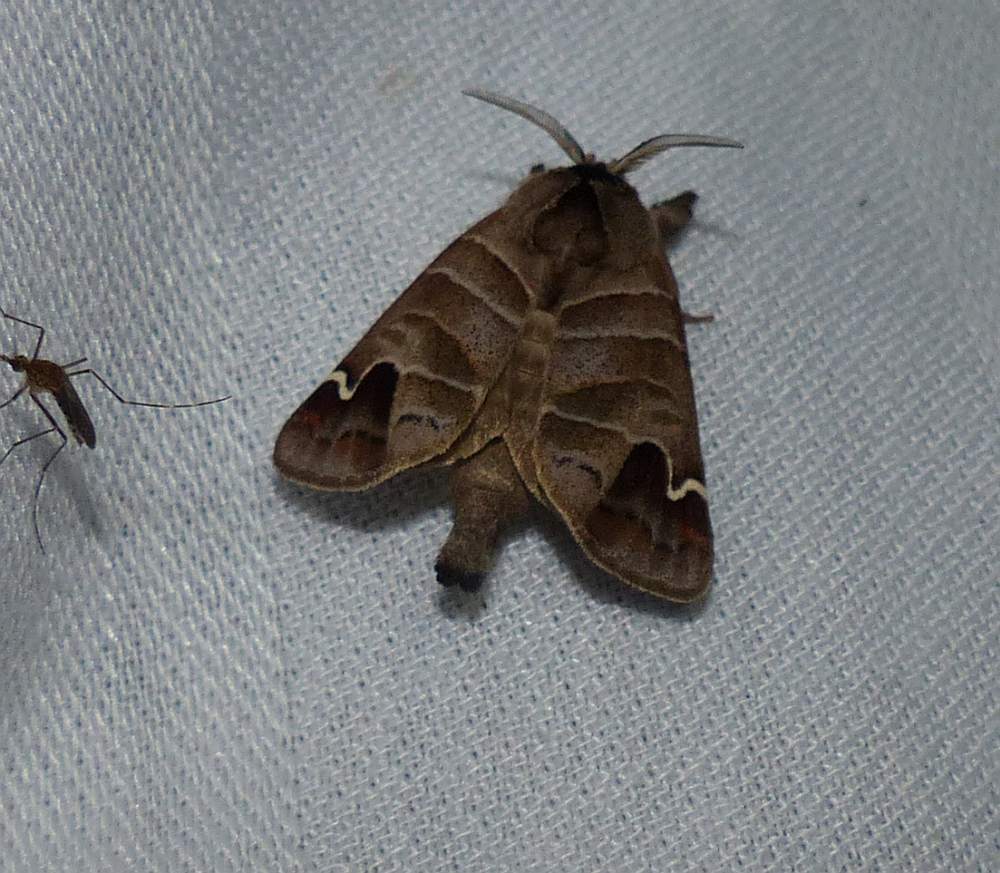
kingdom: Animalia
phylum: Arthropoda
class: Insecta
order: Lepidoptera
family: Notodontidae
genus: Clostera
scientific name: Clostera albosigma
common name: Sigmoid prominent
